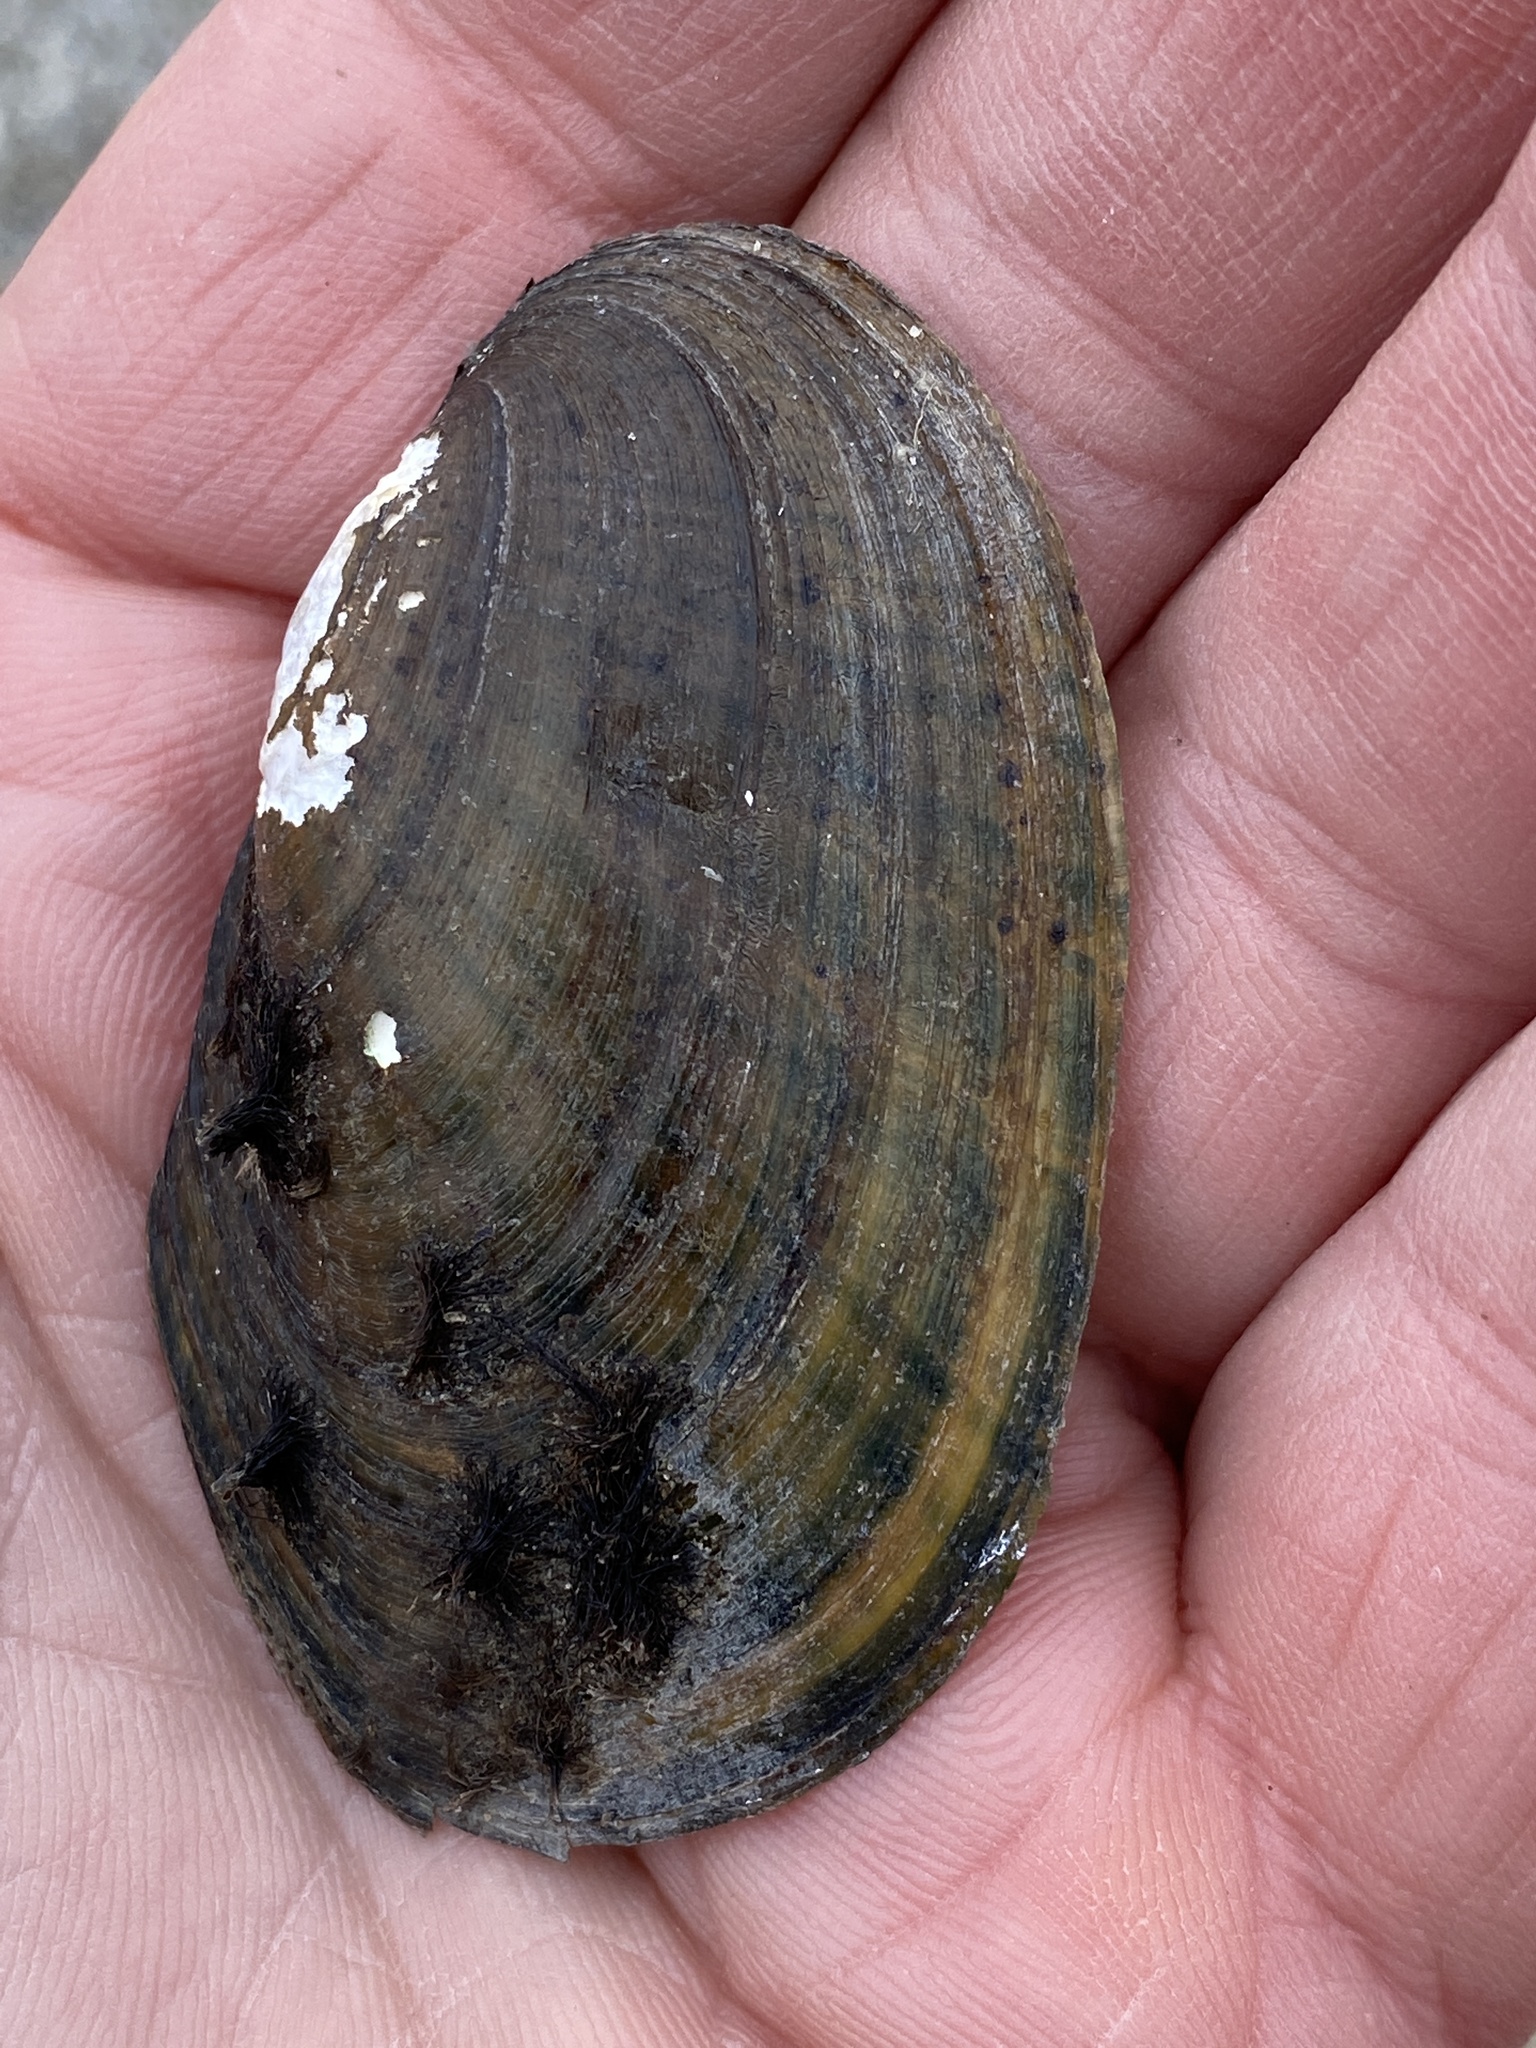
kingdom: Animalia
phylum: Mollusca
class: Bivalvia
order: Unionida
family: Unionidae
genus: Lampsilis
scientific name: Lampsilis radiata
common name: Eastern lampmussel
